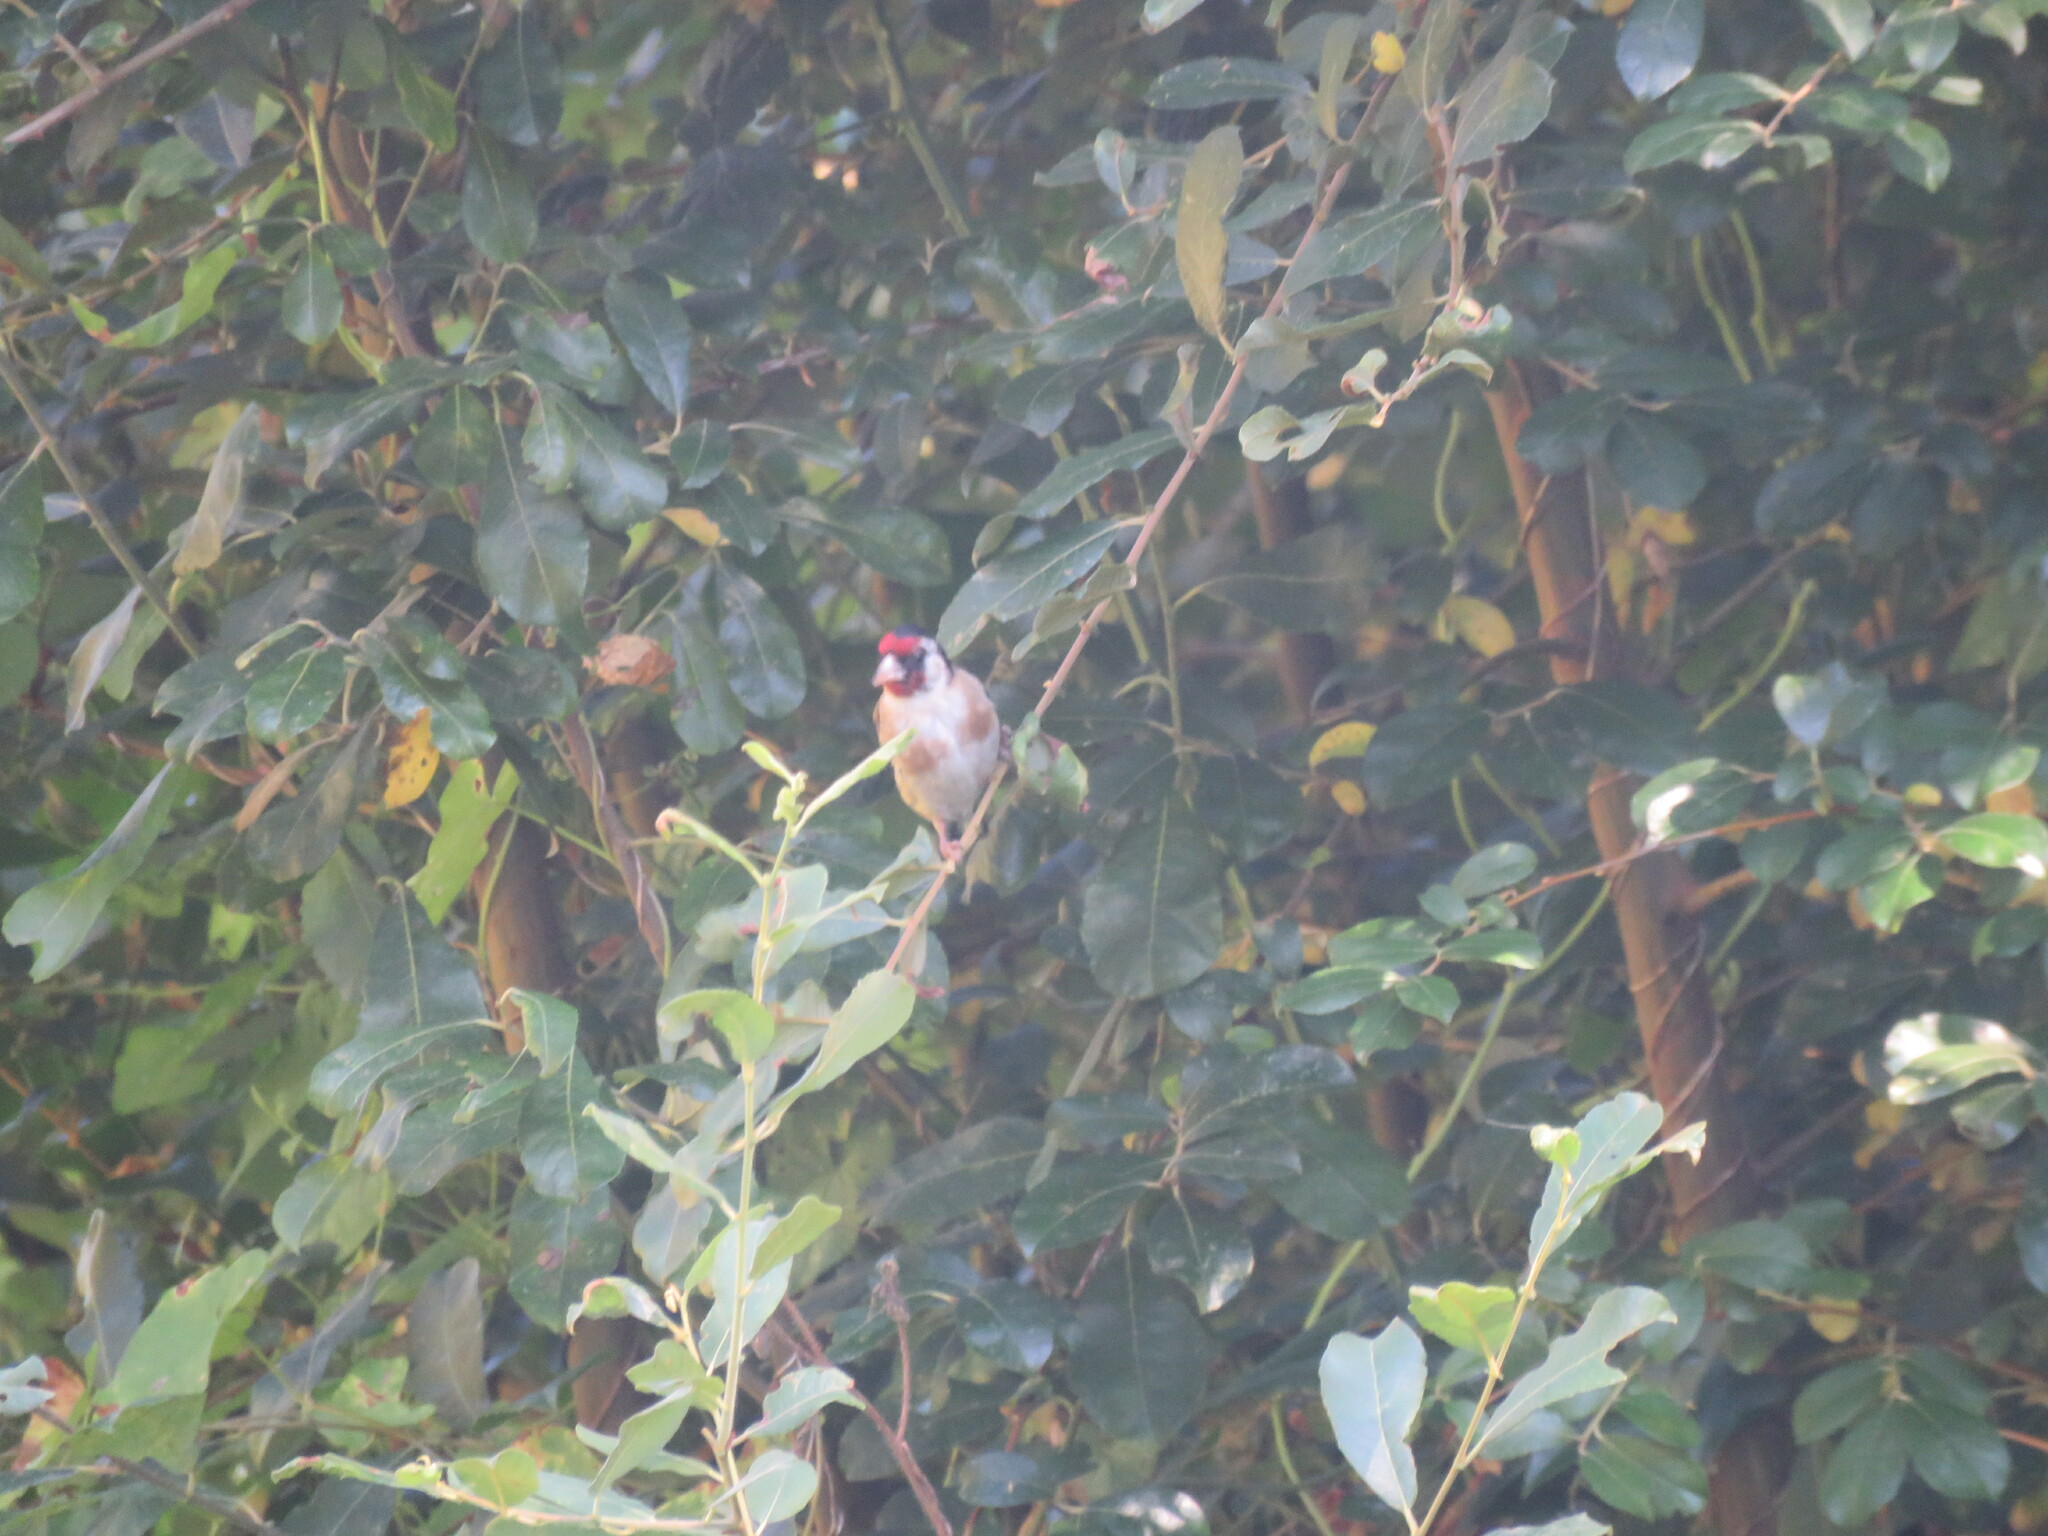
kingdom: Animalia
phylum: Chordata
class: Aves
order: Passeriformes
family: Fringillidae
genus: Carduelis
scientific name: Carduelis carduelis
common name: European goldfinch
